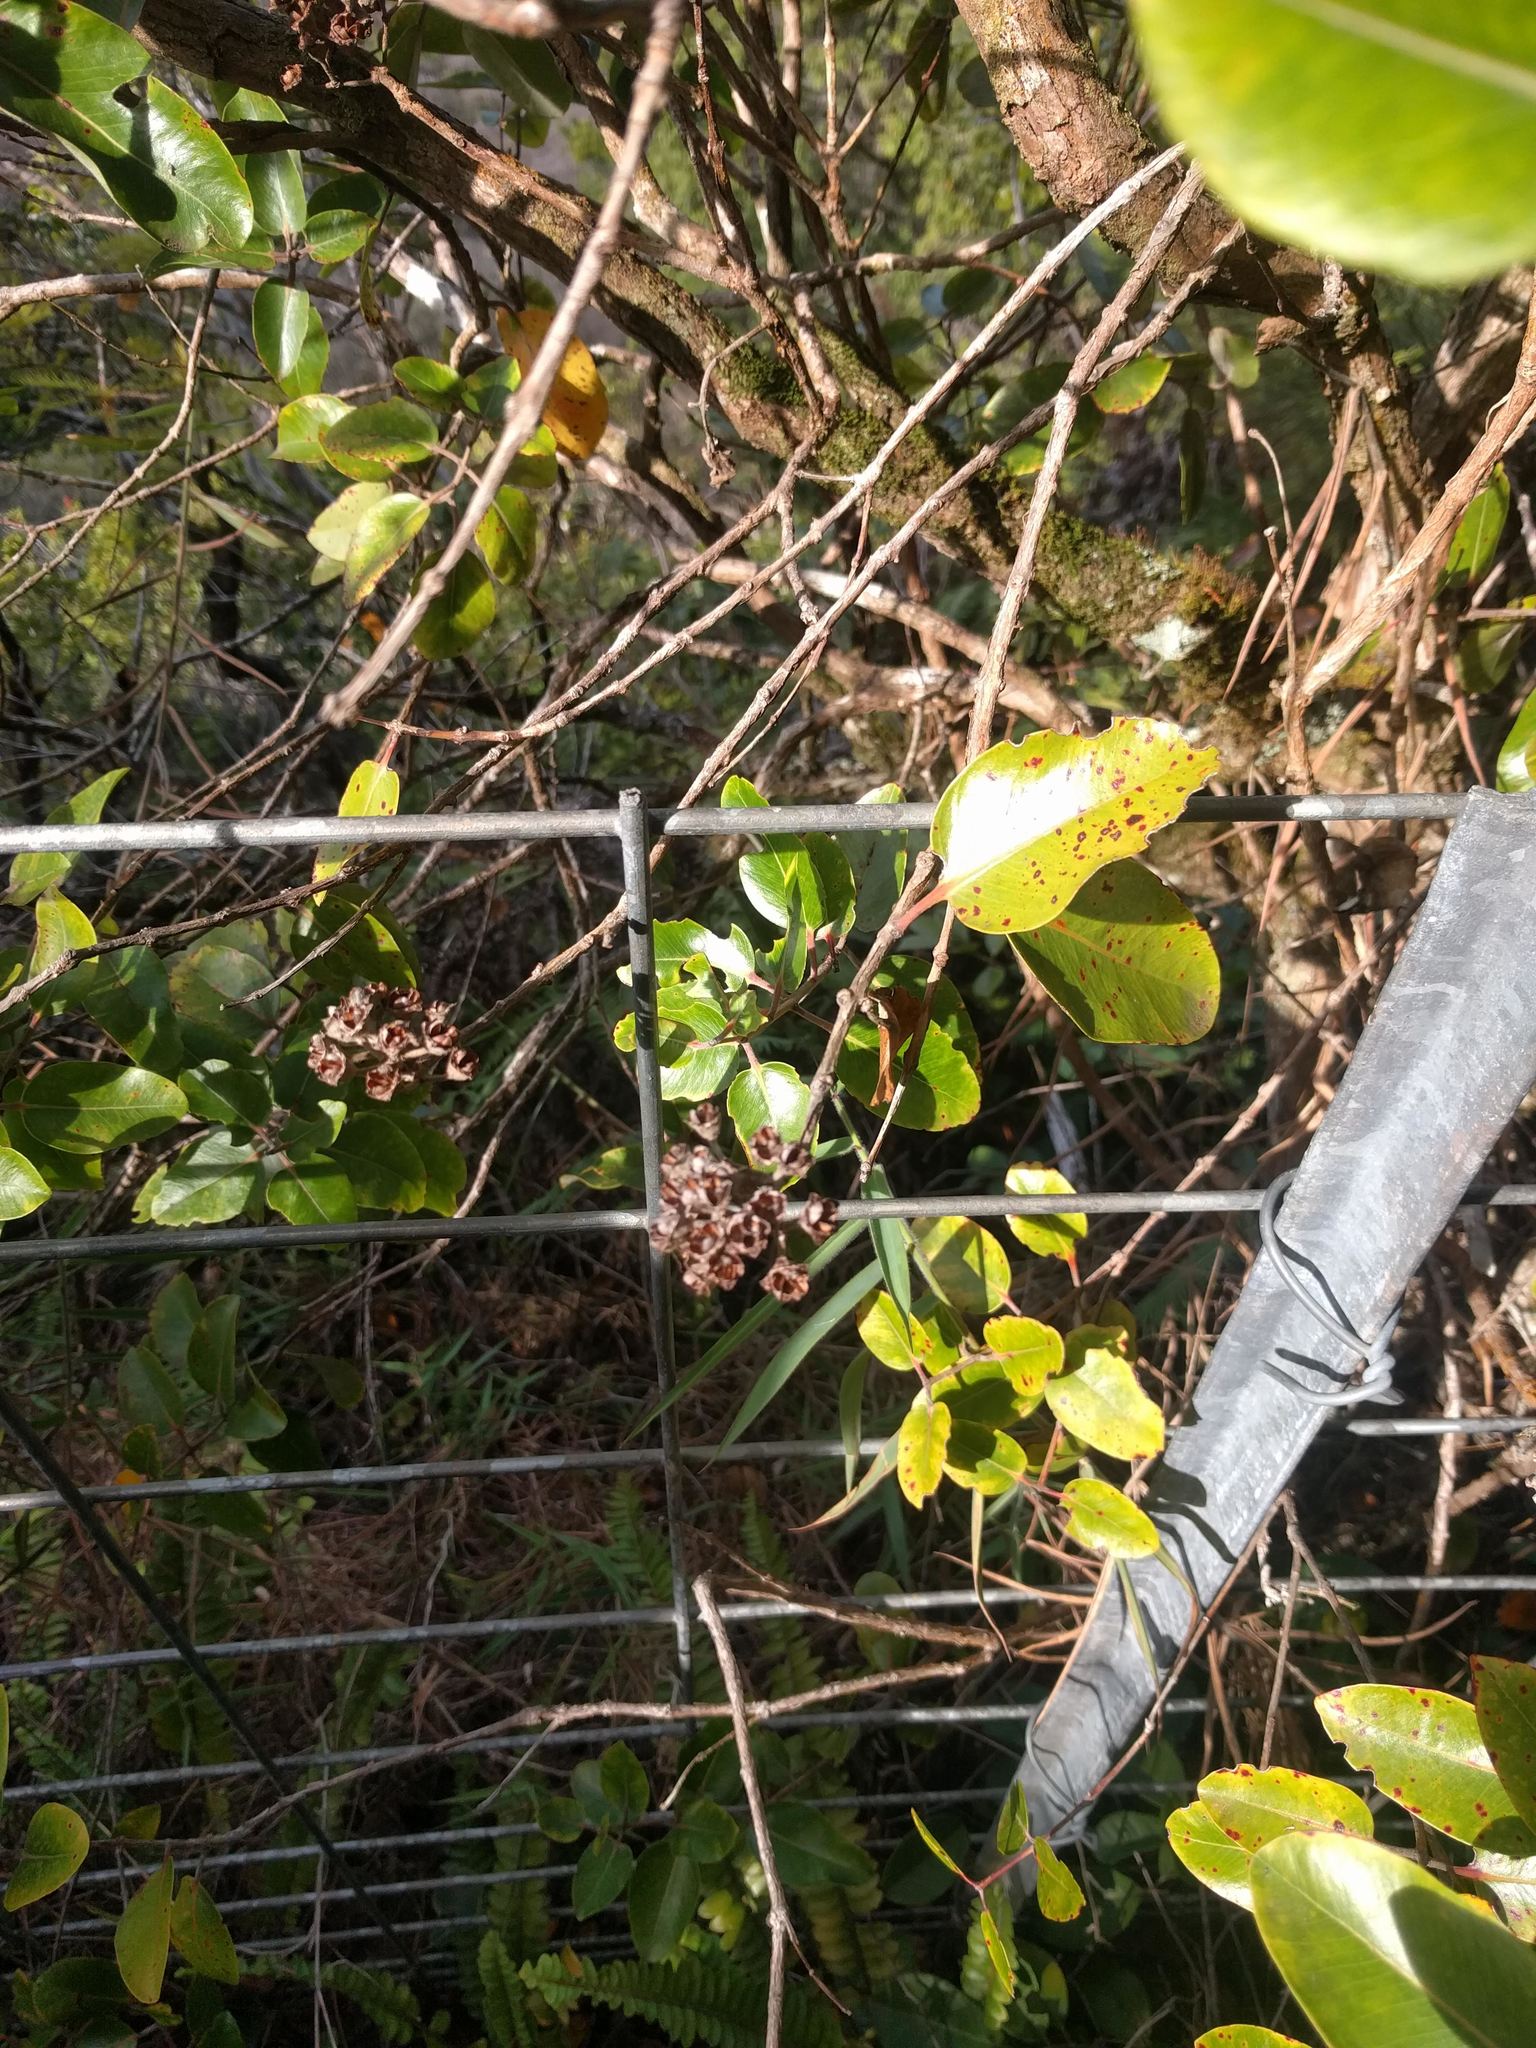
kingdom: Plantae
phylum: Tracheophyta
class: Magnoliopsida
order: Myrtales
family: Myrtaceae
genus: Metrosideros
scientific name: Metrosideros polymorpha
